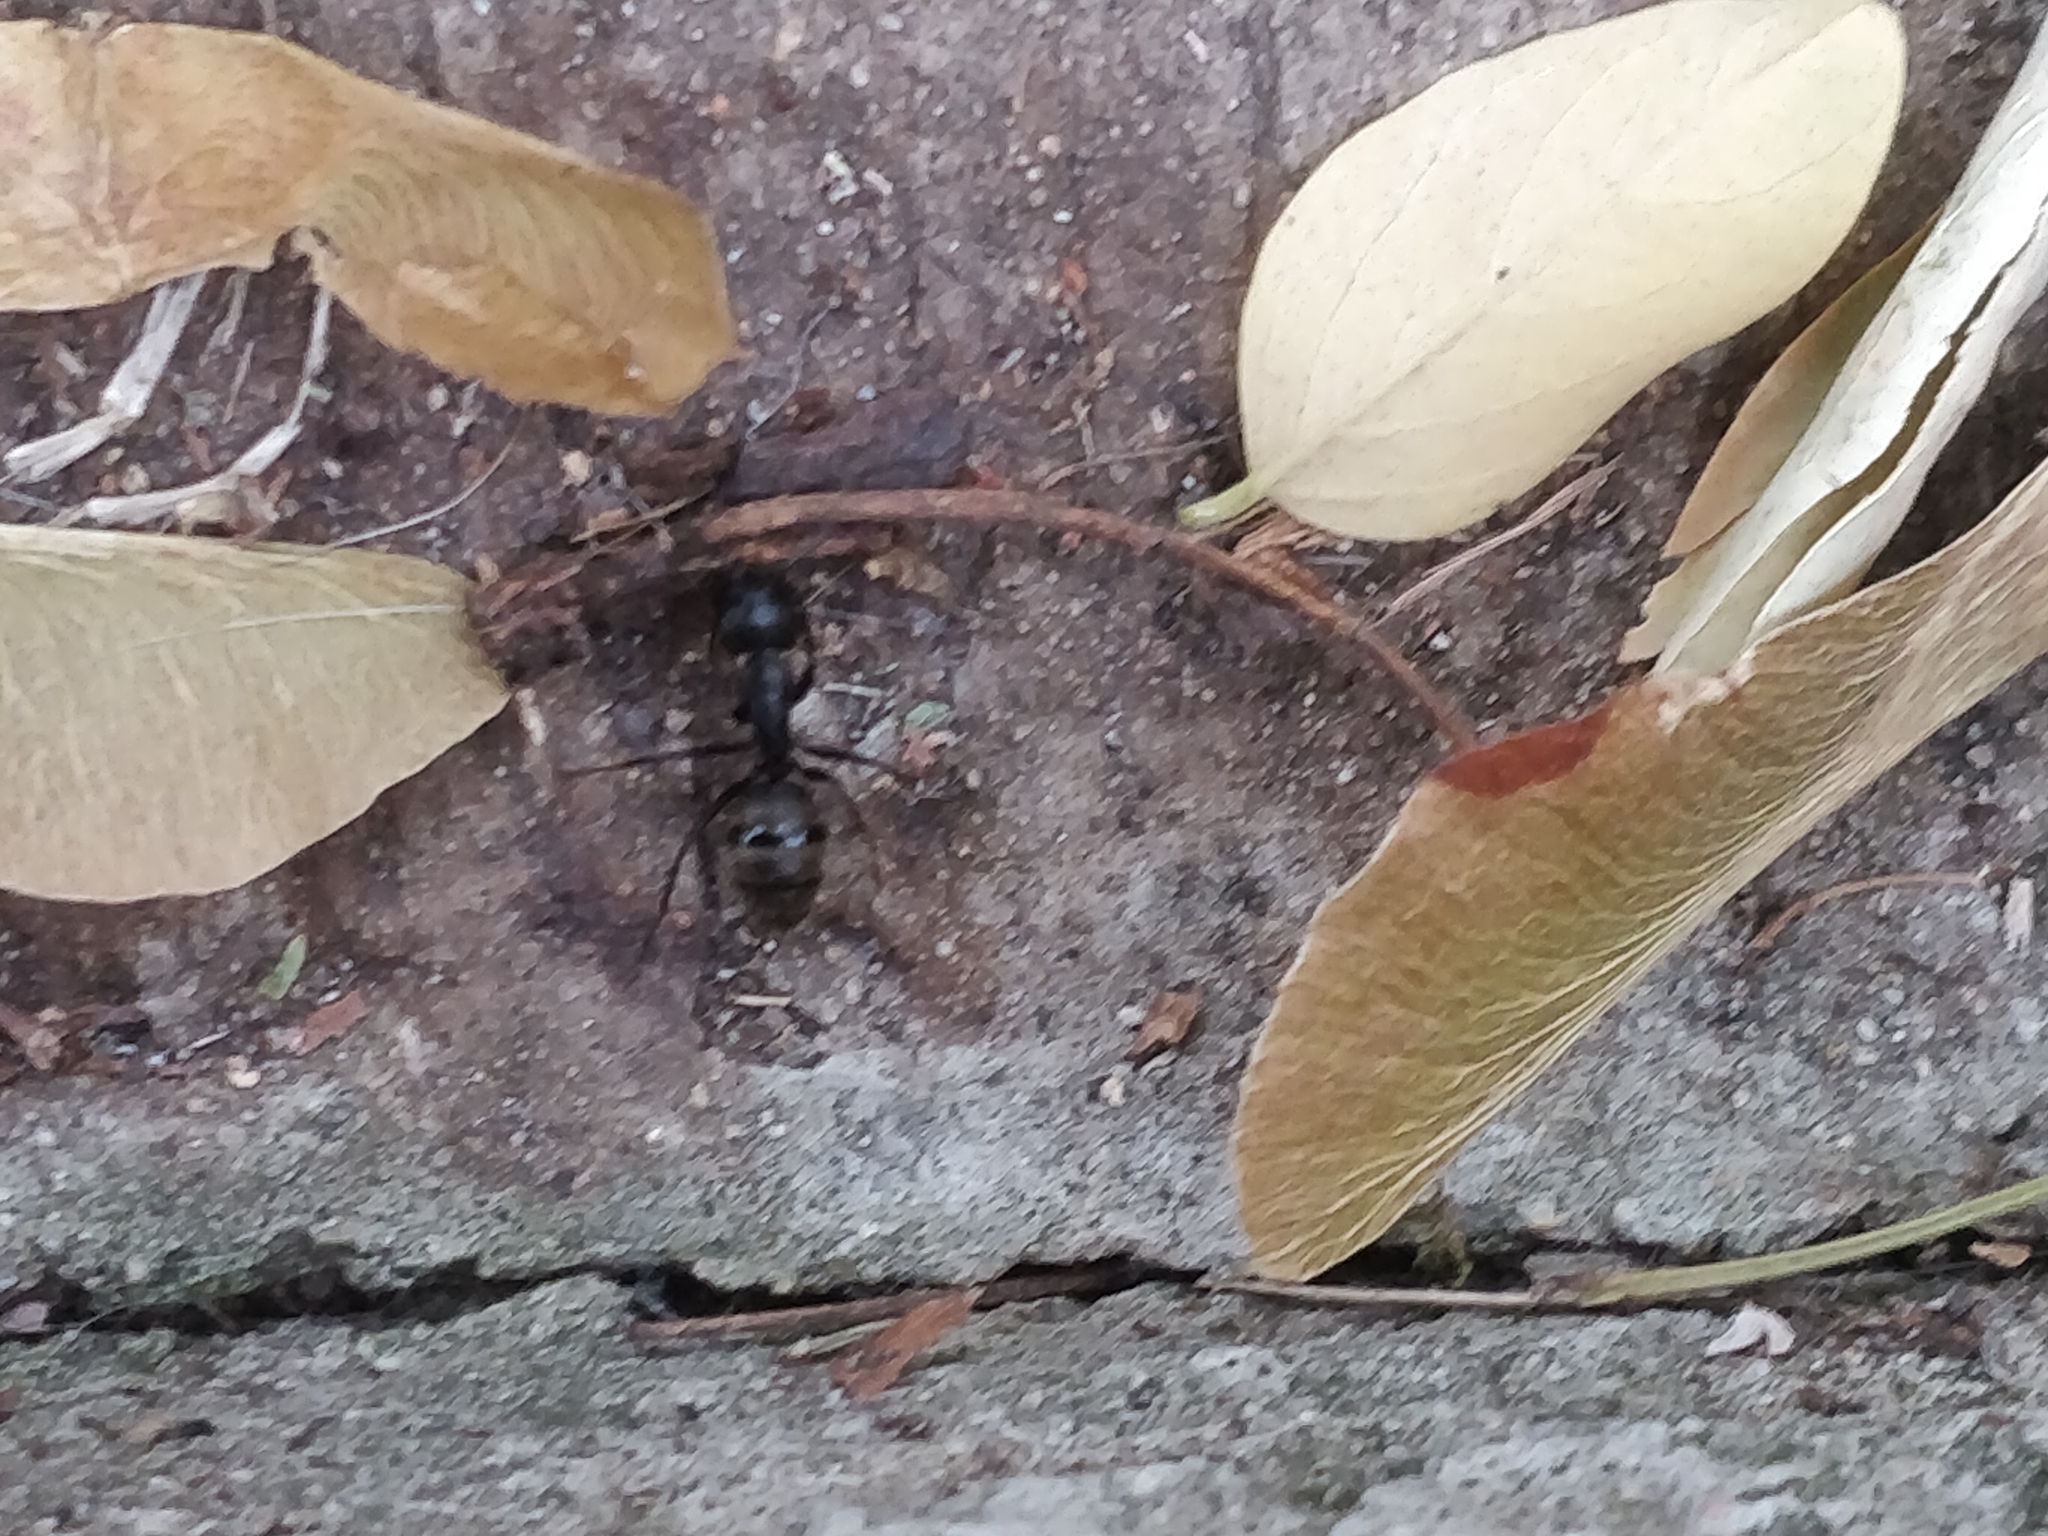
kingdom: Animalia
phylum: Arthropoda
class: Insecta
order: Hymenoptera
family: Formicidae
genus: Camponotus
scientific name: Camponotus pennsylvanicus
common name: Black carpenter ant
